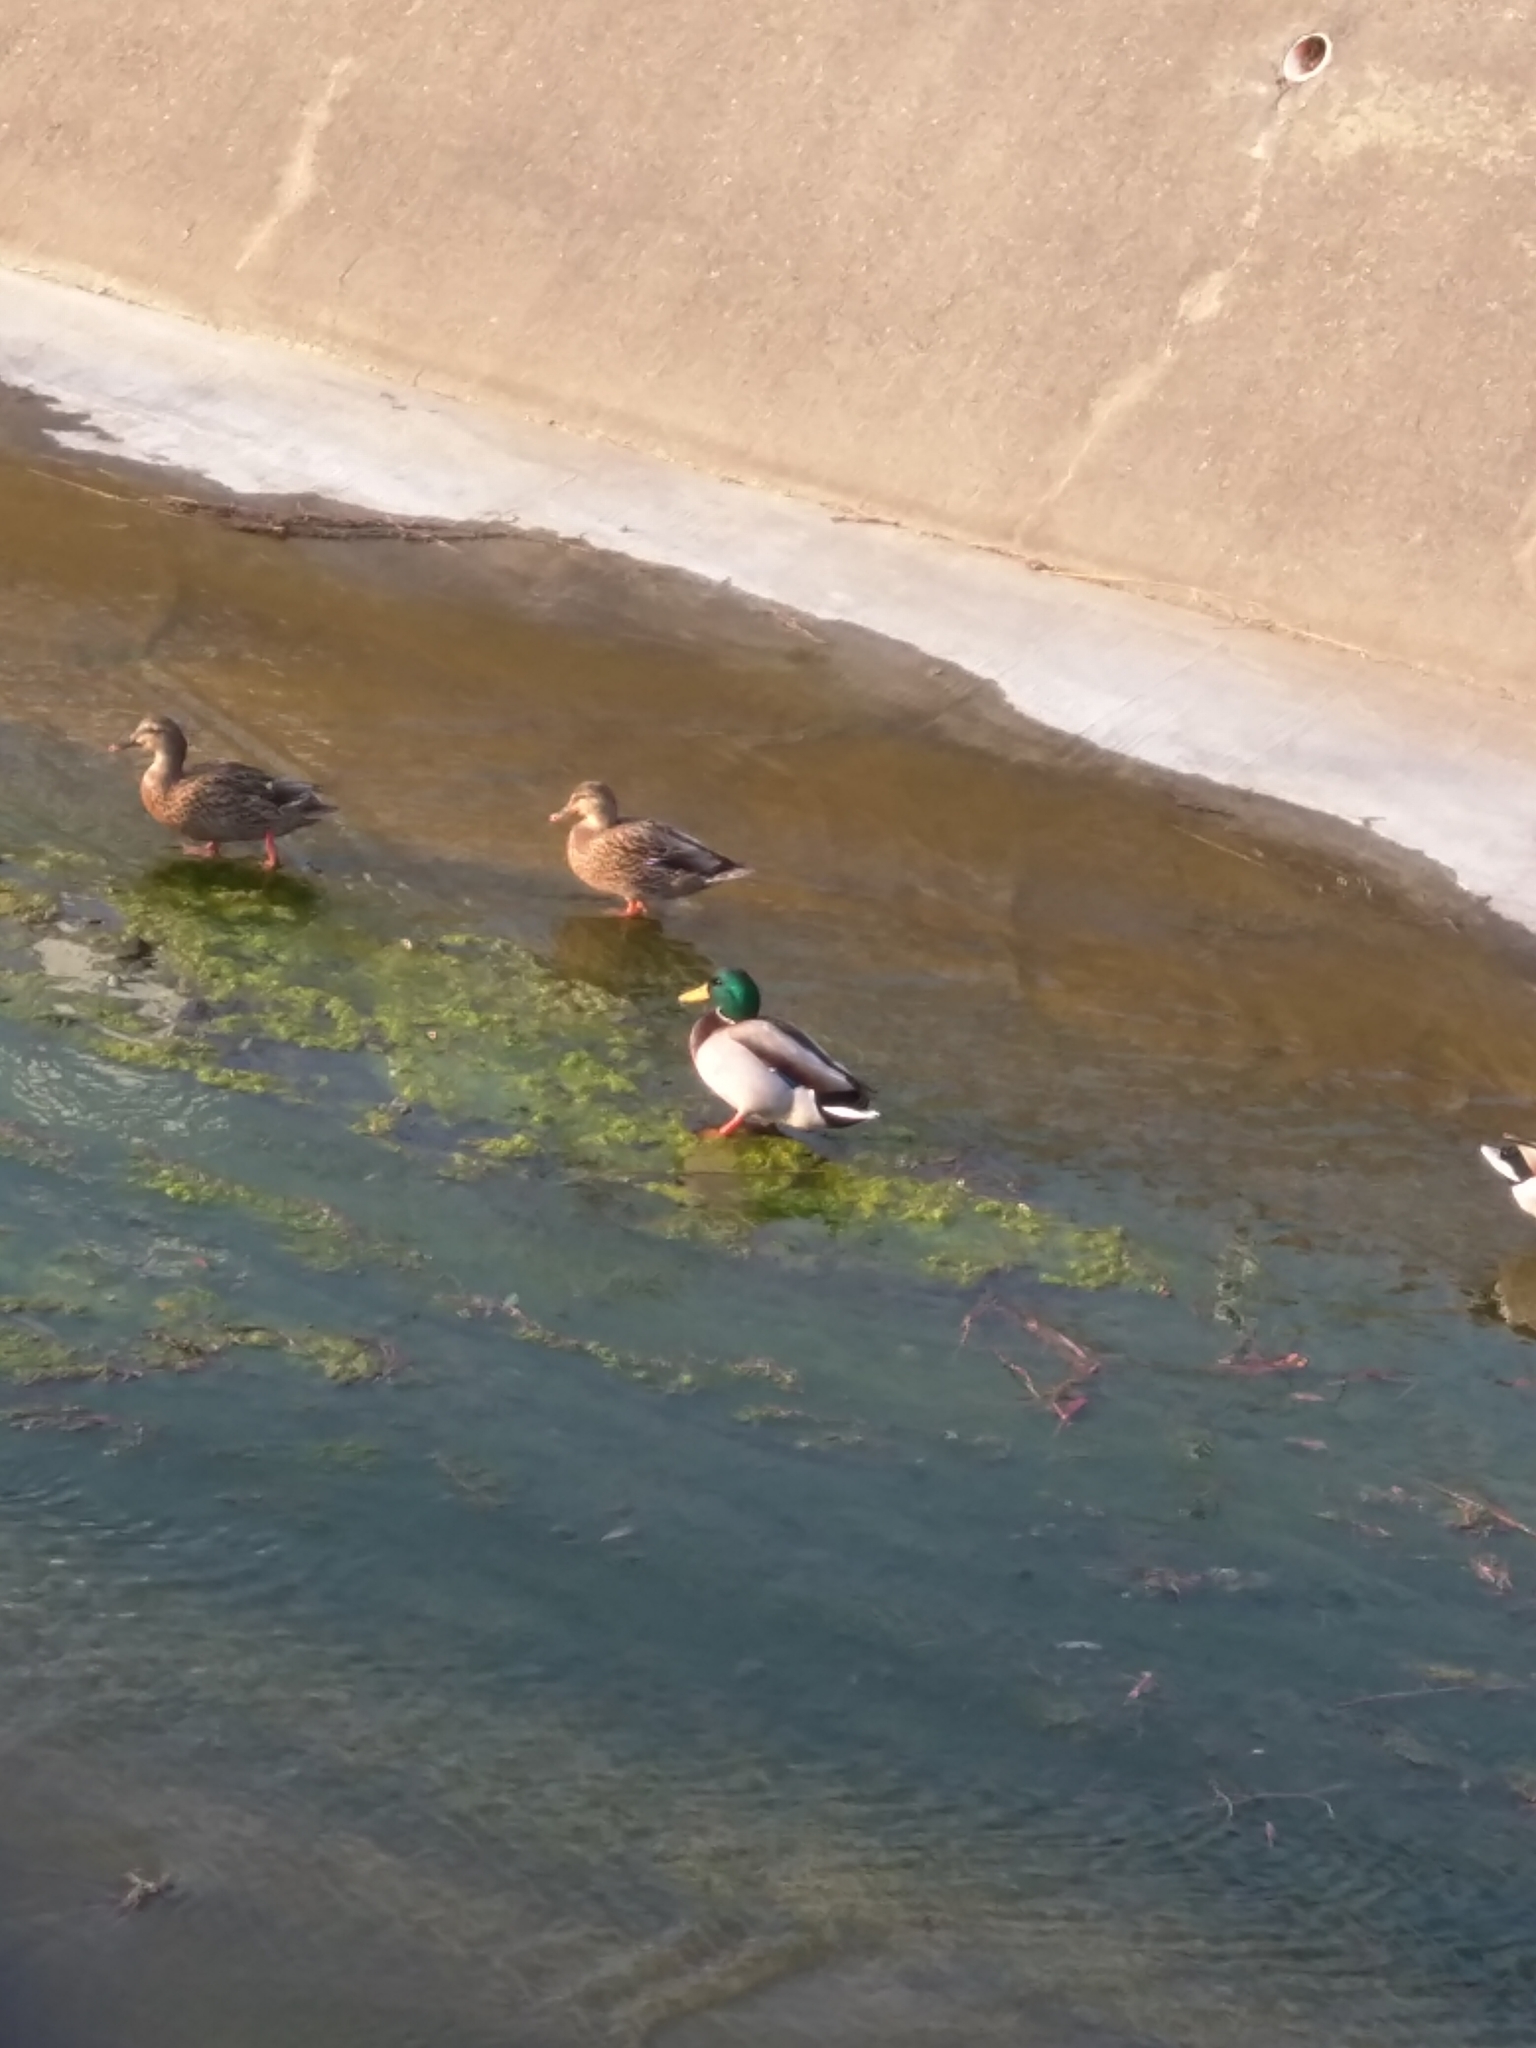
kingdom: Animalia
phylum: Chordata
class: Aves
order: Anseriformes
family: Anatidae
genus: Anas
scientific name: Anas platyrhynchos
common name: Mallard
